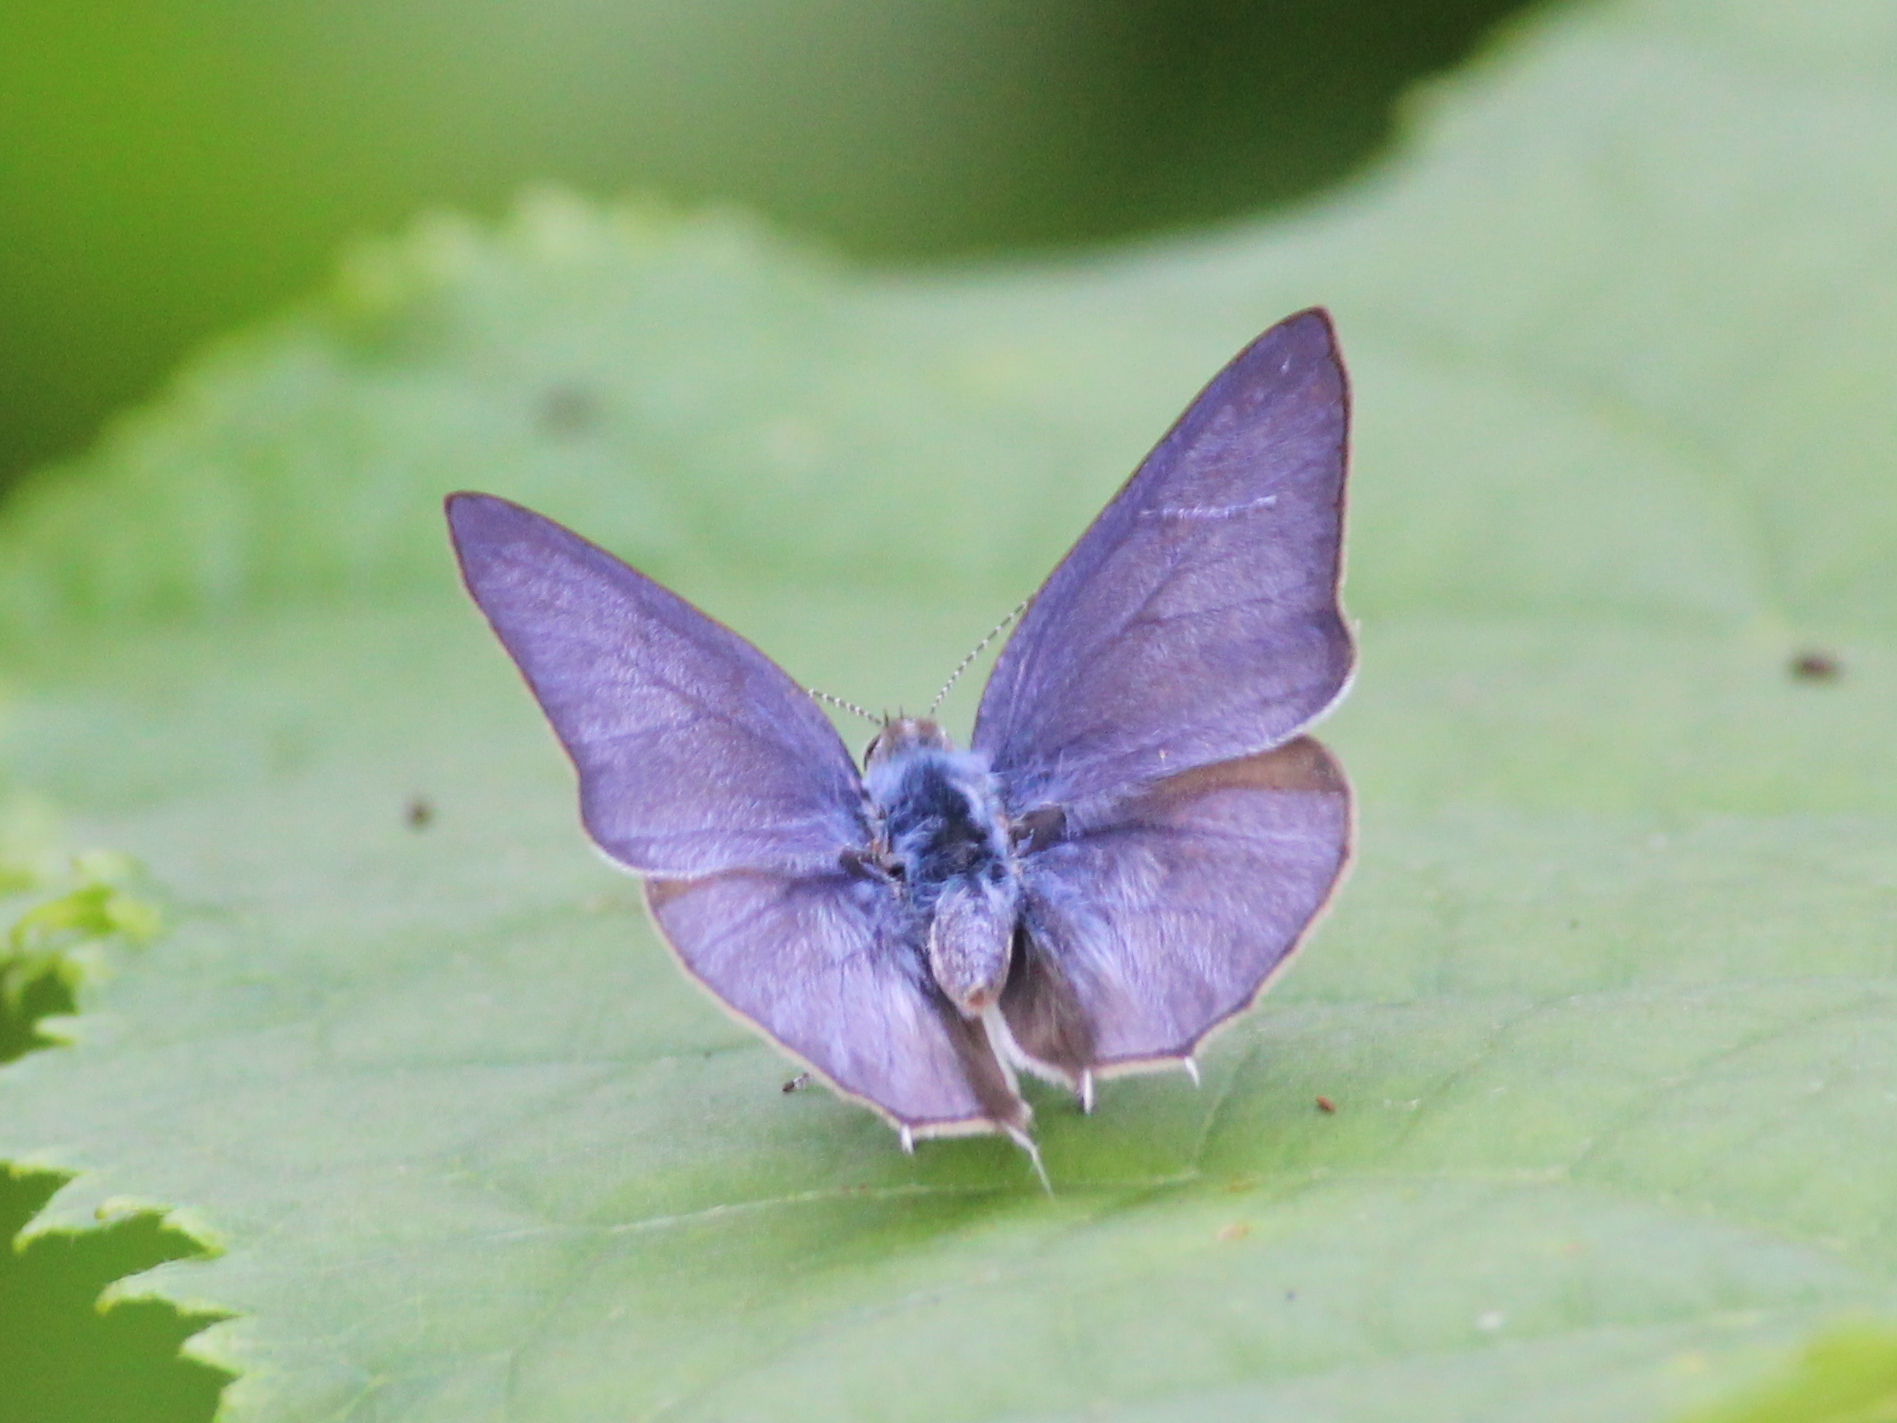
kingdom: Animalia
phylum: Arthropoda
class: Insecta
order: Lepidoptera
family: Lycaenidae
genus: Anthene
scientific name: Anthene lycaenina
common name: Pointed ciliate blue
